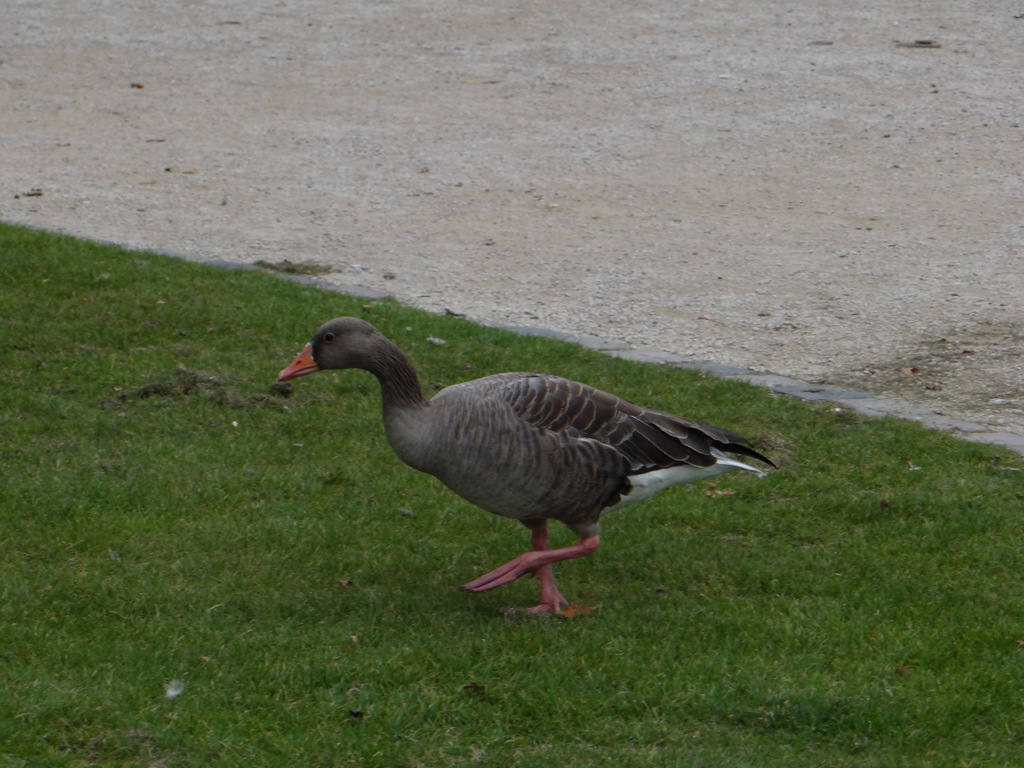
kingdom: Animalia
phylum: Chordata
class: Aves
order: Anseriformes
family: Anatidae
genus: Anser
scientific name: Anser anser
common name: Greylag goose
